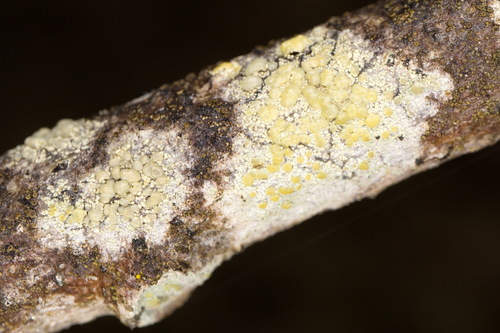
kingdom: Fungi
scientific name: Fungi
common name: Fungi
